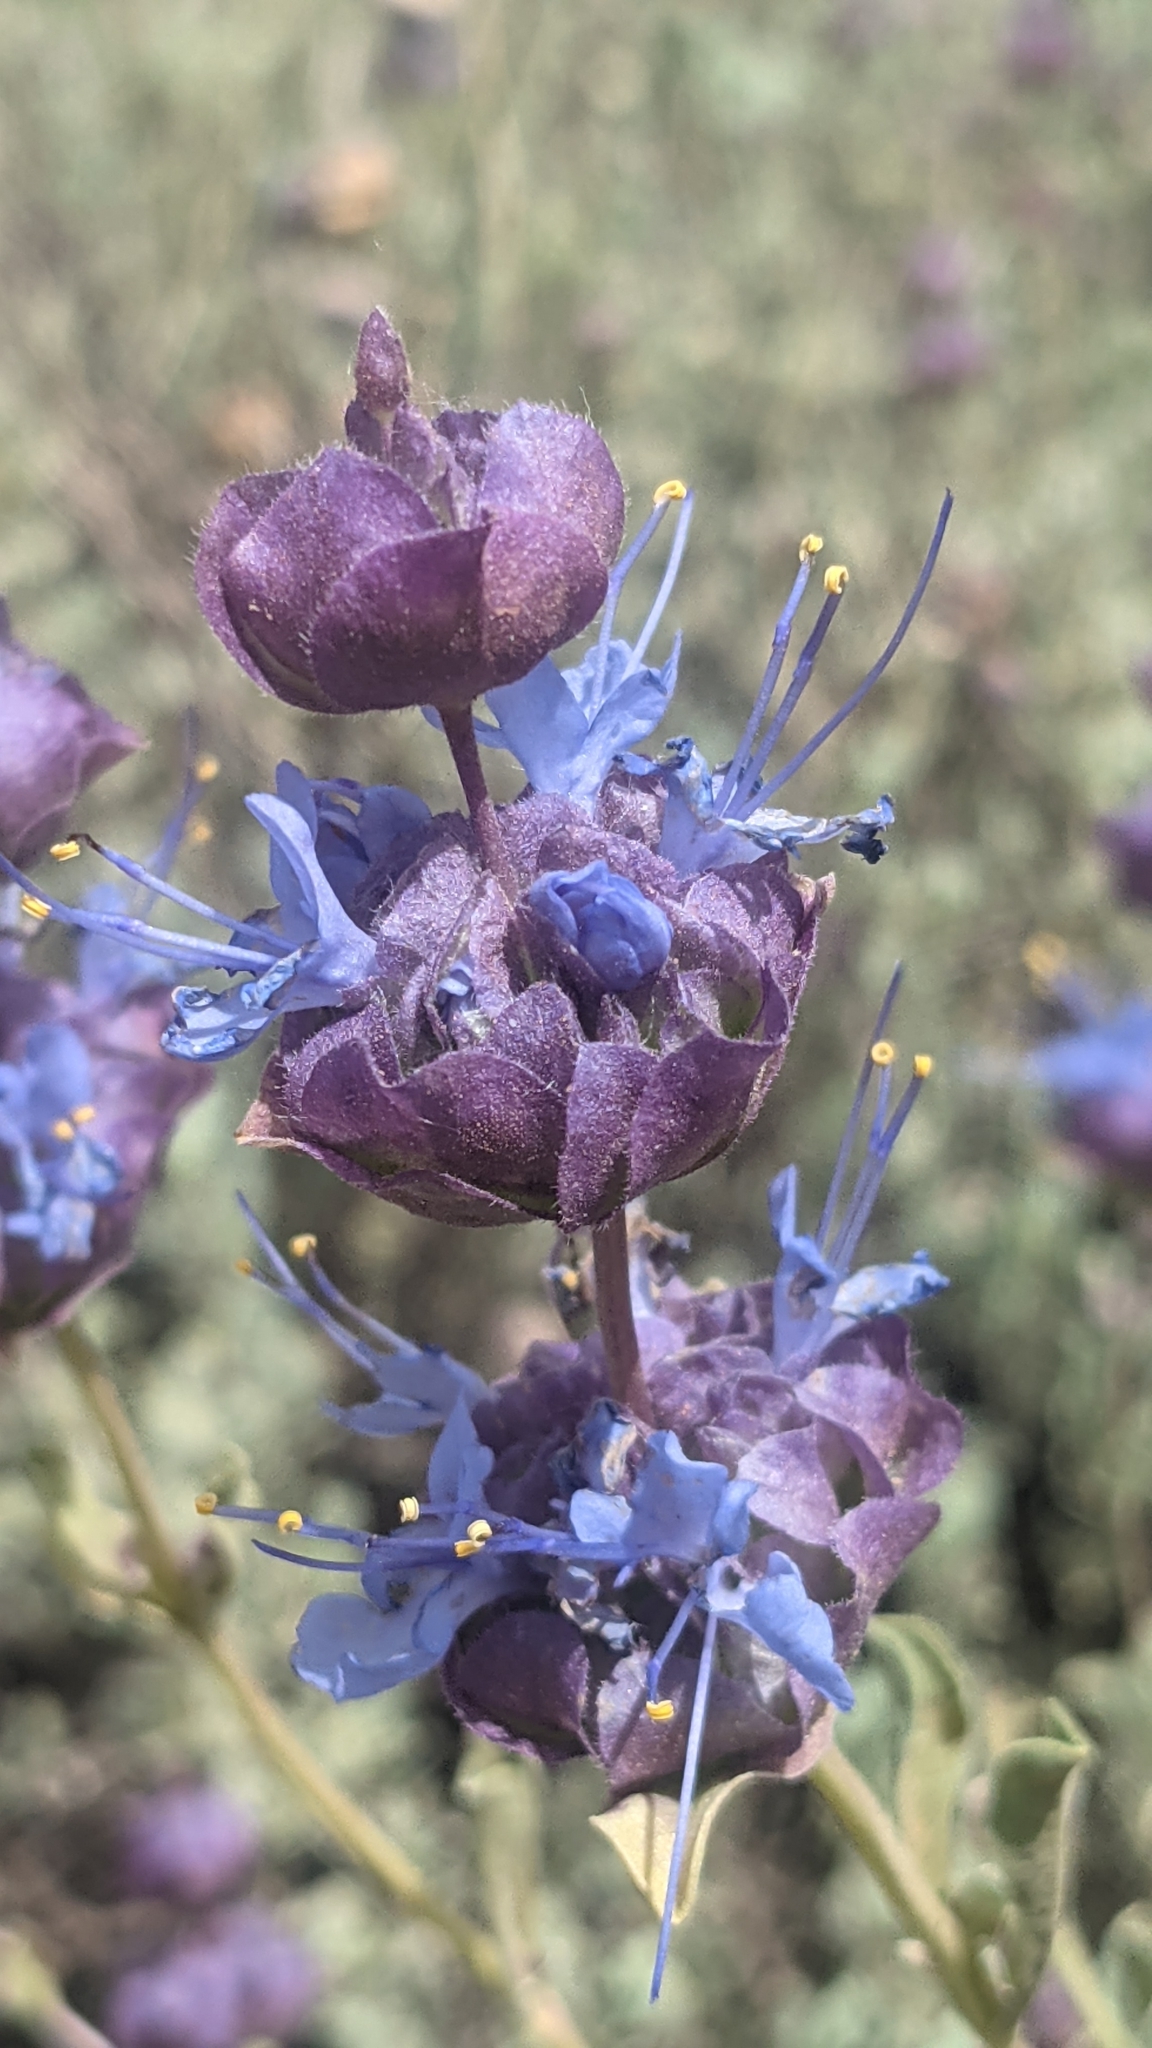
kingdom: Plantae
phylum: Tracheophyta
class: Magnoliopsida
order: Lamiales
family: Lamiaceae
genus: Salvia
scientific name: Salvia dorrii
